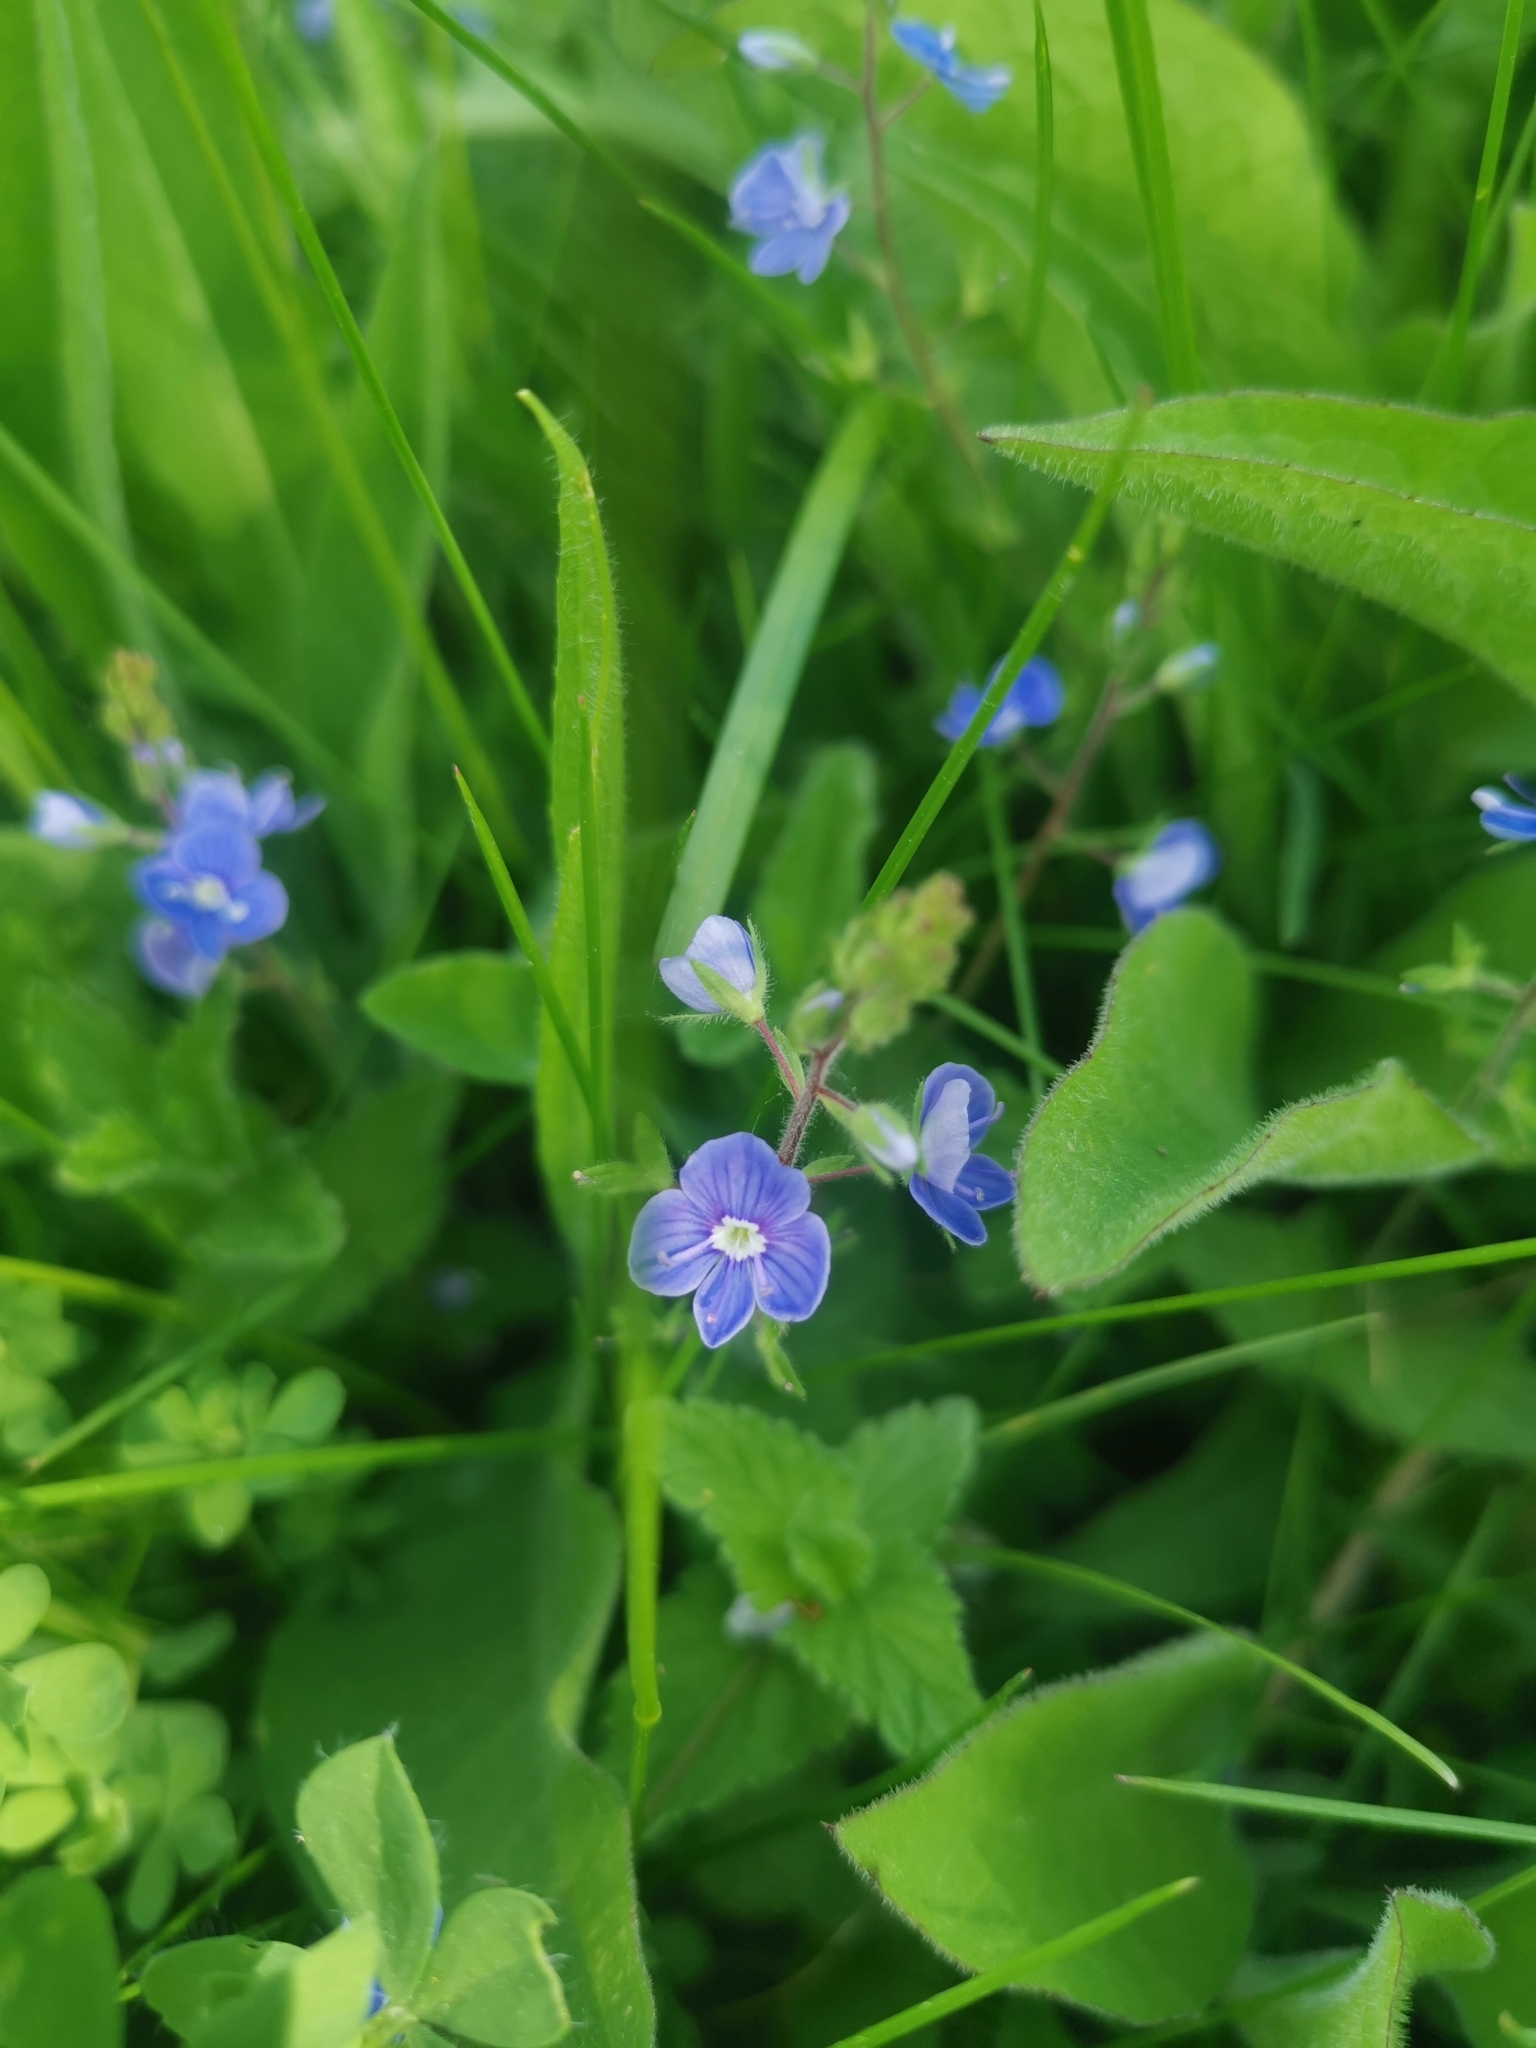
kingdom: Plantae
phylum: Tracheophyta
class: Magnoliopsida
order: Lamiales
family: Plantaginaceae
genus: Veronica
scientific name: Veronica chamaedrys
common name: Germander speedwell
